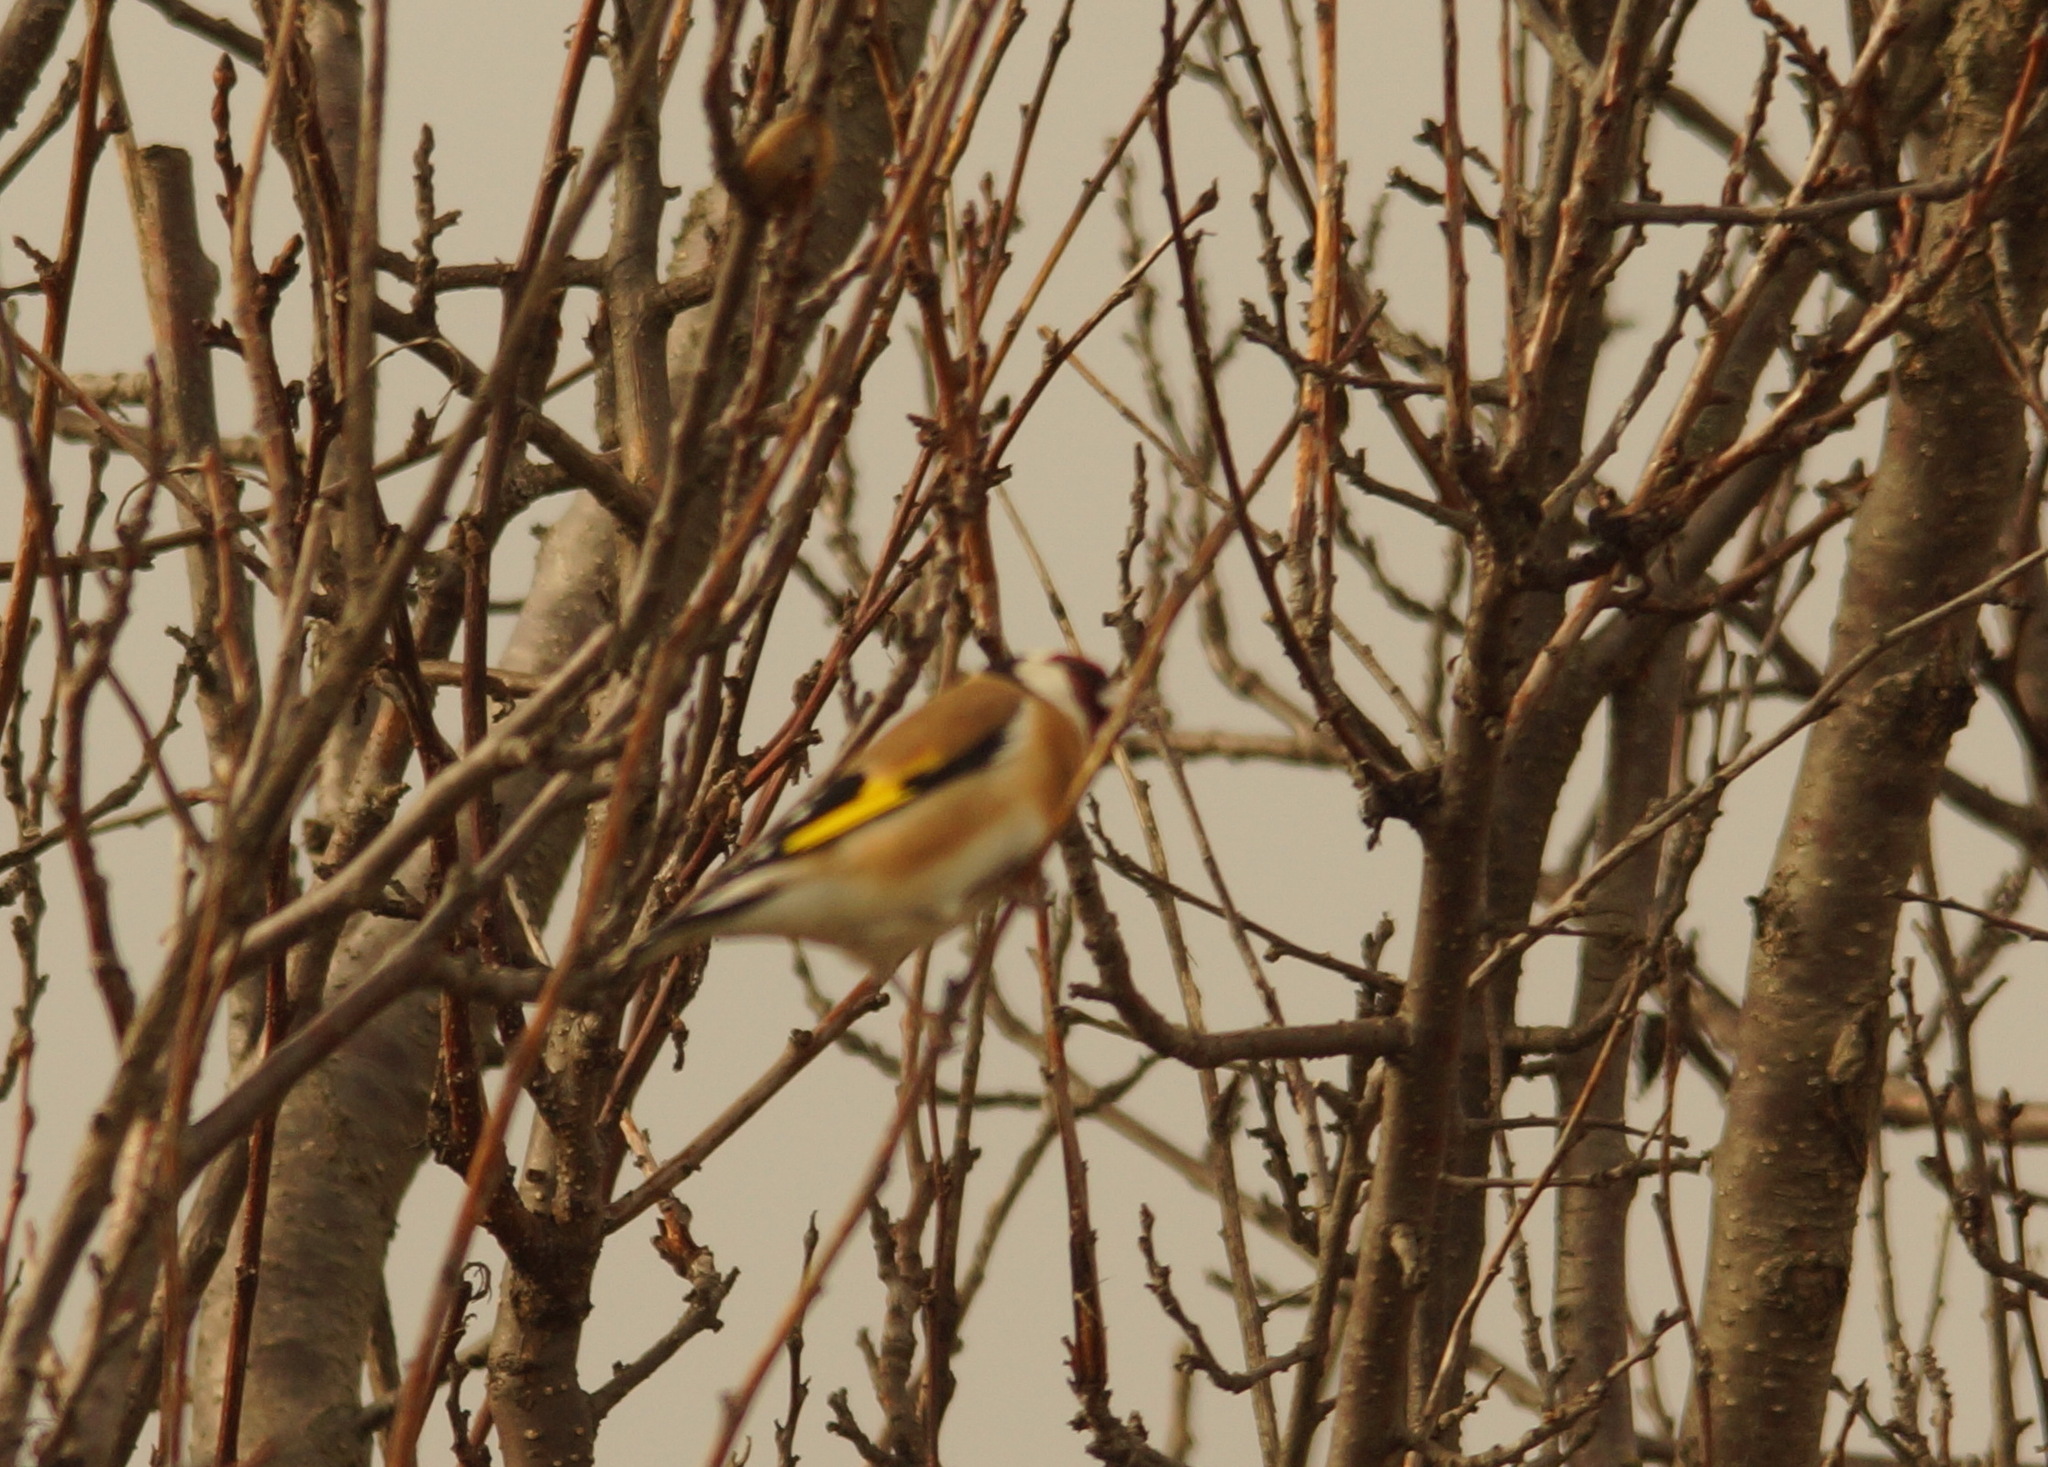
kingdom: Animalia
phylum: Chordata
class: Aves
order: Passeriformes
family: Fringillidae
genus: Carduelis
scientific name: Carduelis carduelis
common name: European goldfinch
